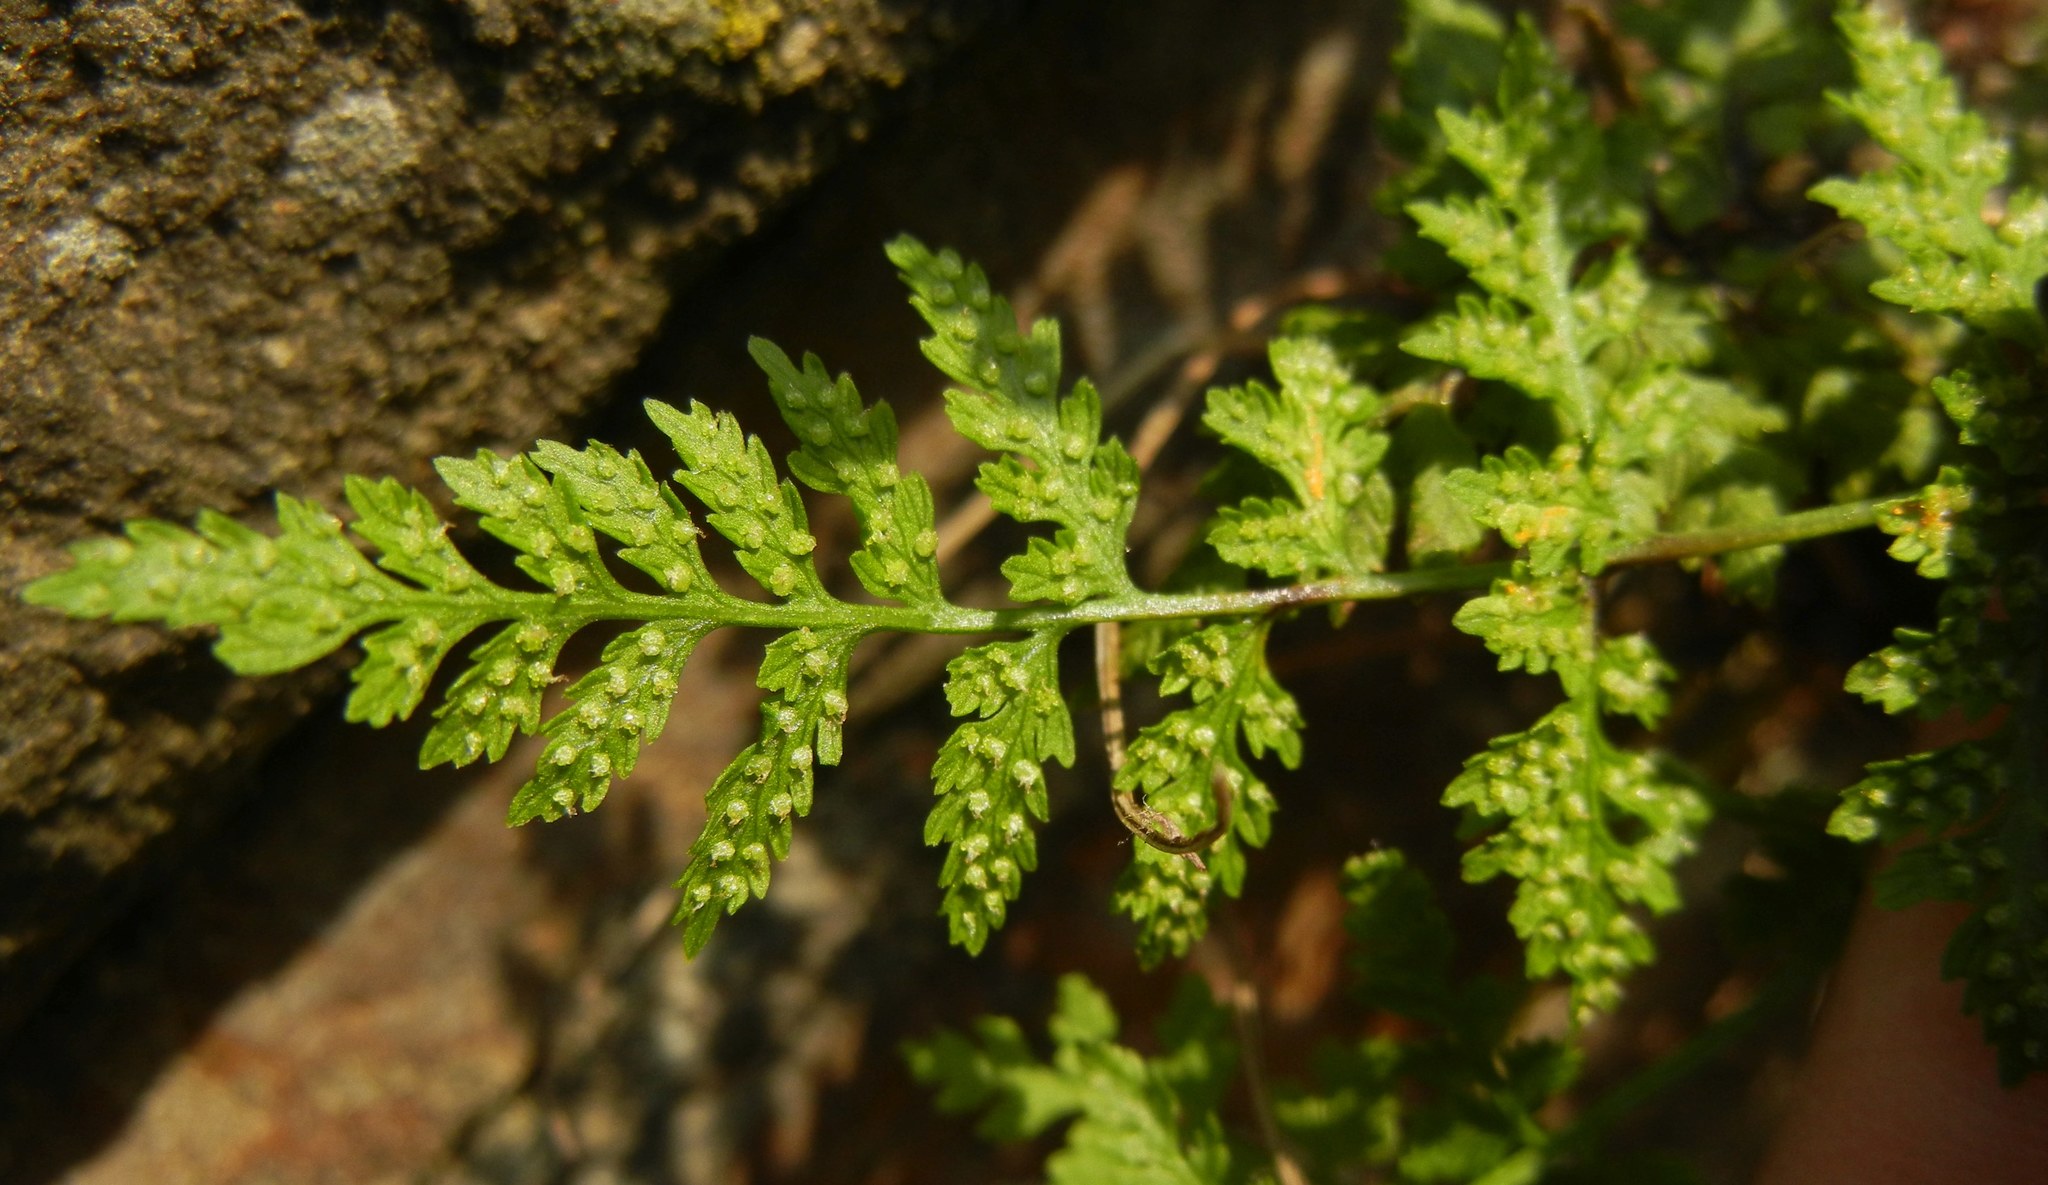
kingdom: Plantae
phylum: Tracheophyta
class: Polypodiopsida
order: Polypodiales
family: Cystopteridaceae
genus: Cystopteris
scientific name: Cystopteris fragilis
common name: Brittle bladder fern
